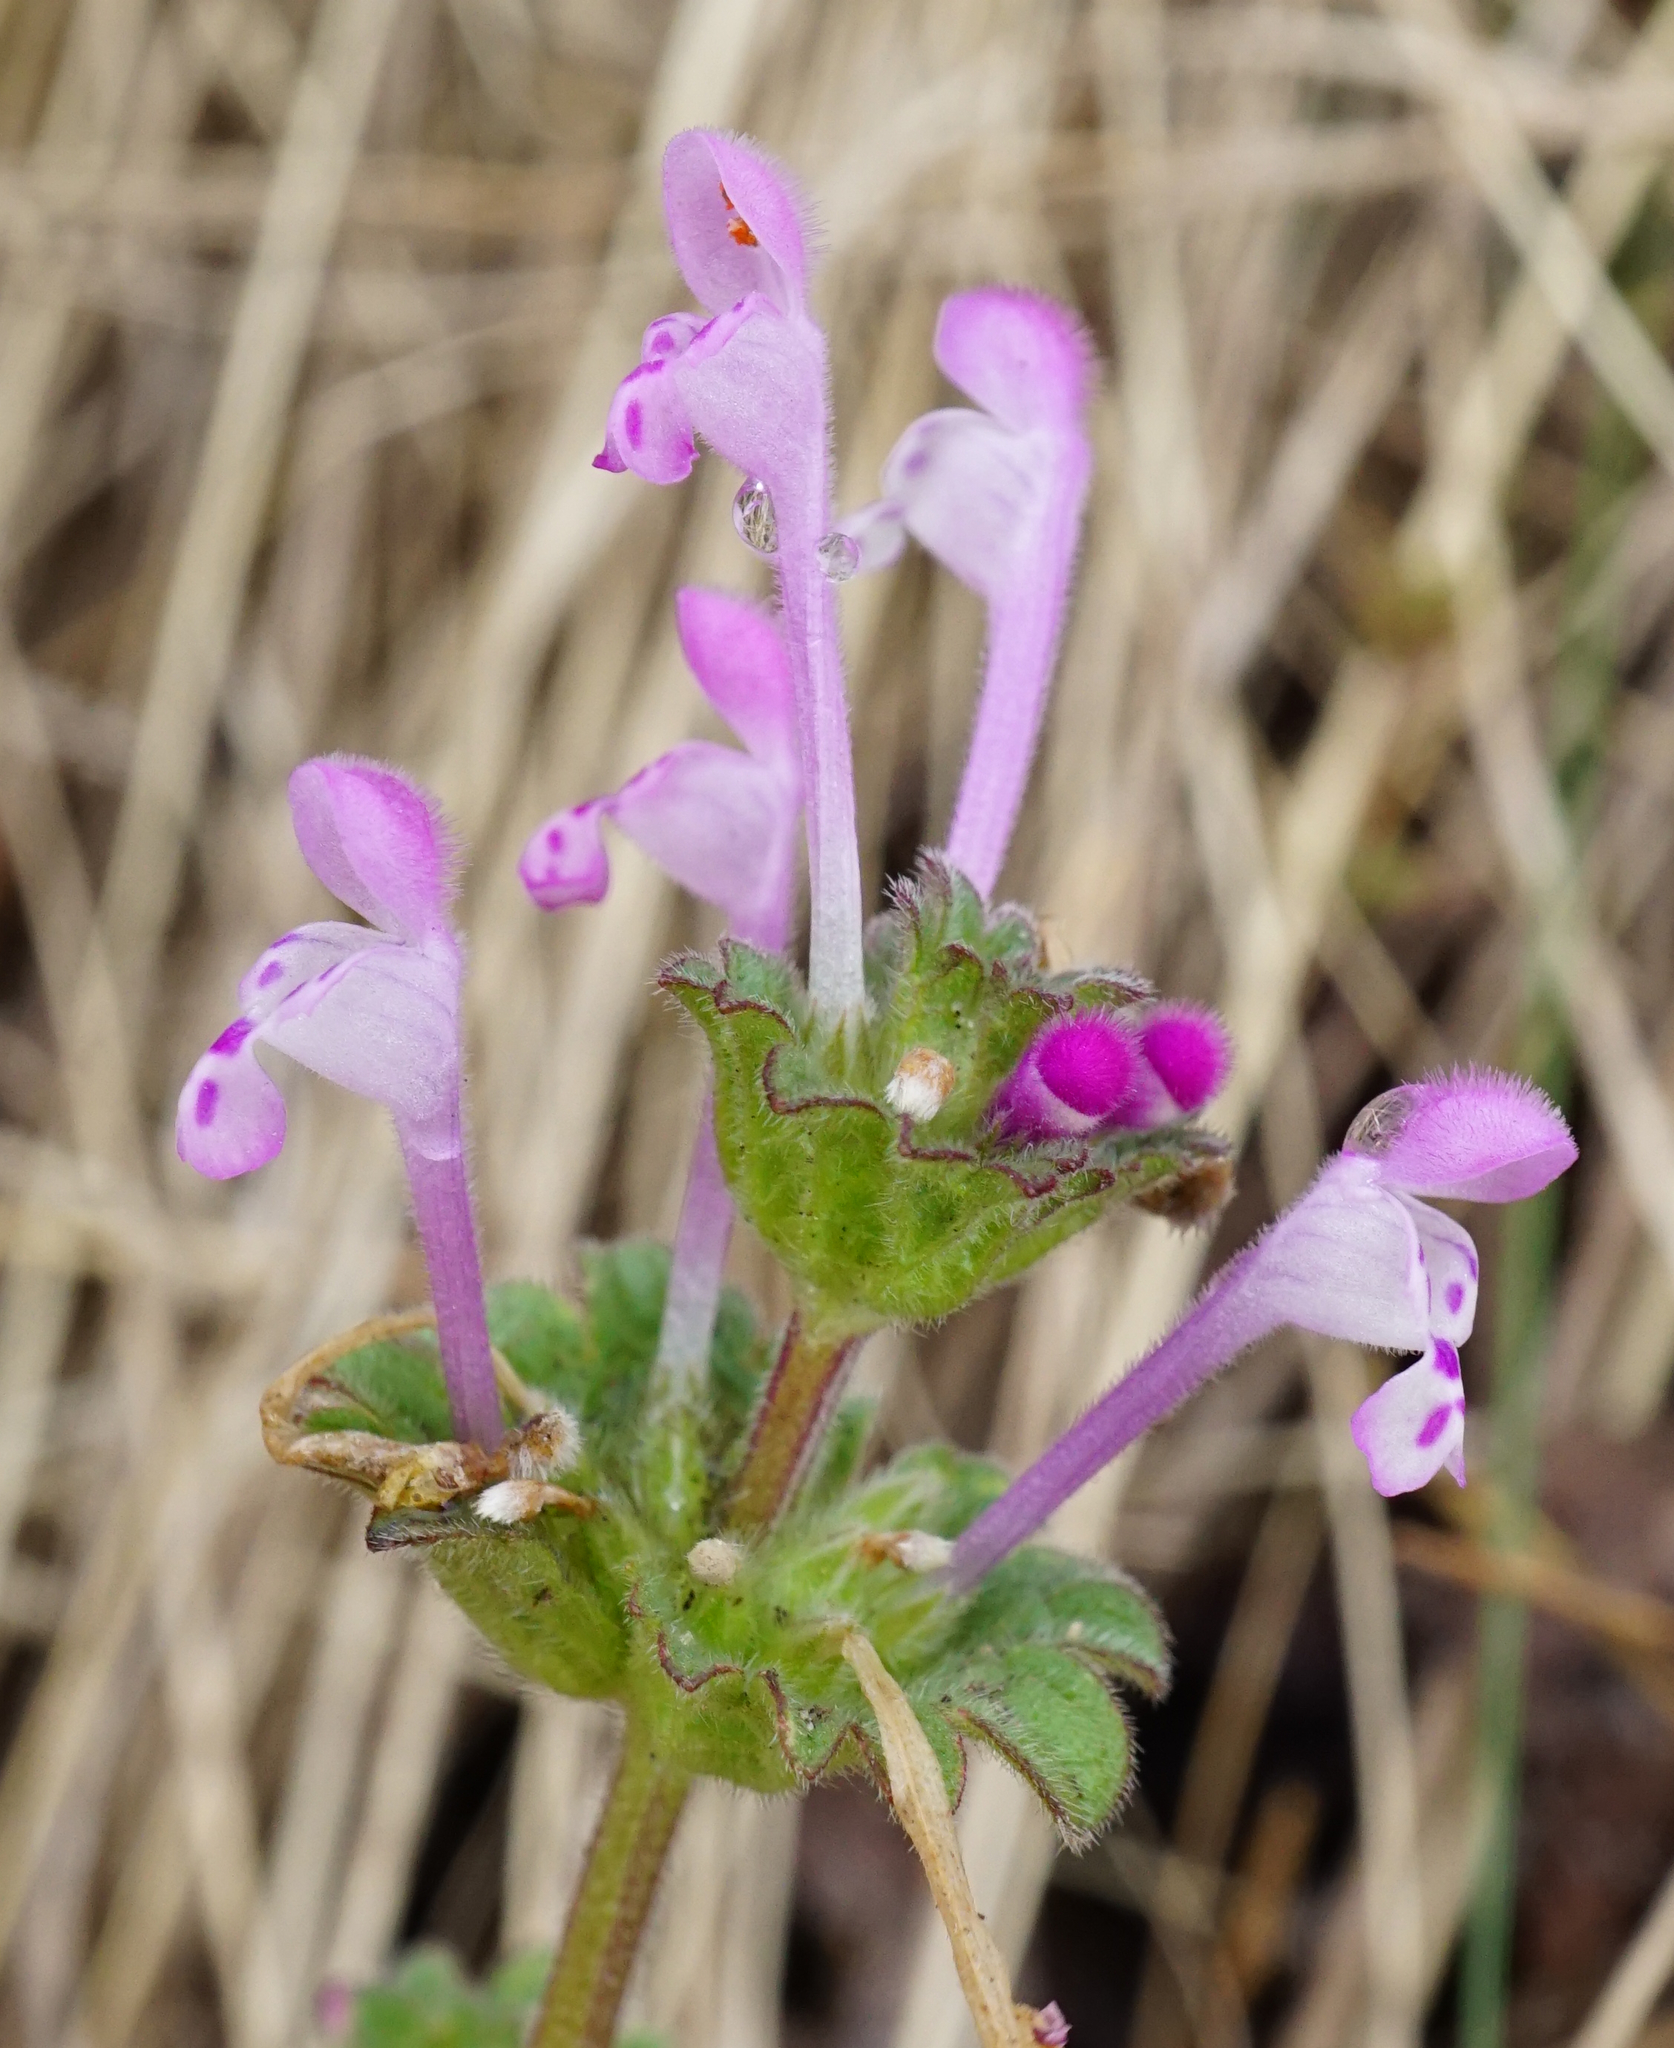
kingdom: Plantae
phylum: Tracheophyta
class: Magnoliopsida
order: Lamiales
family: Lamiaceae
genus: Lamium
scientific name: Lamium amplexicaule
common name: Henbit dead-nettle
